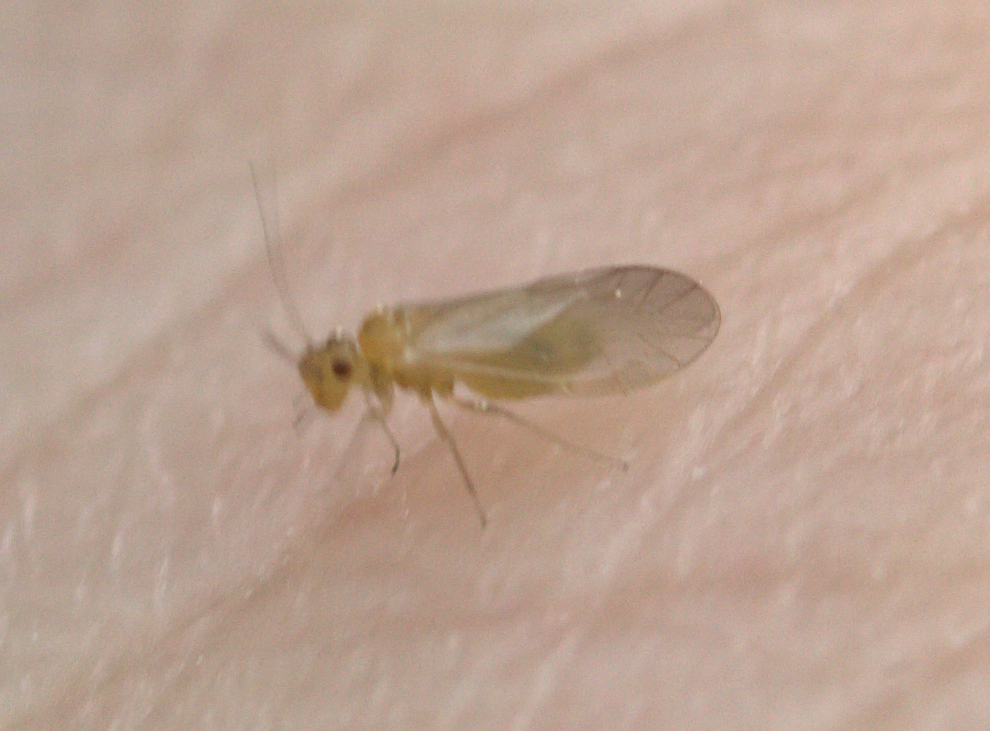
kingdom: Animalia
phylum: Arthropoda
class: Insecta
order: Psocodea
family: Caeciliusidae
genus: Valenzuela
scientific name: Valenzuela burmeisteri
